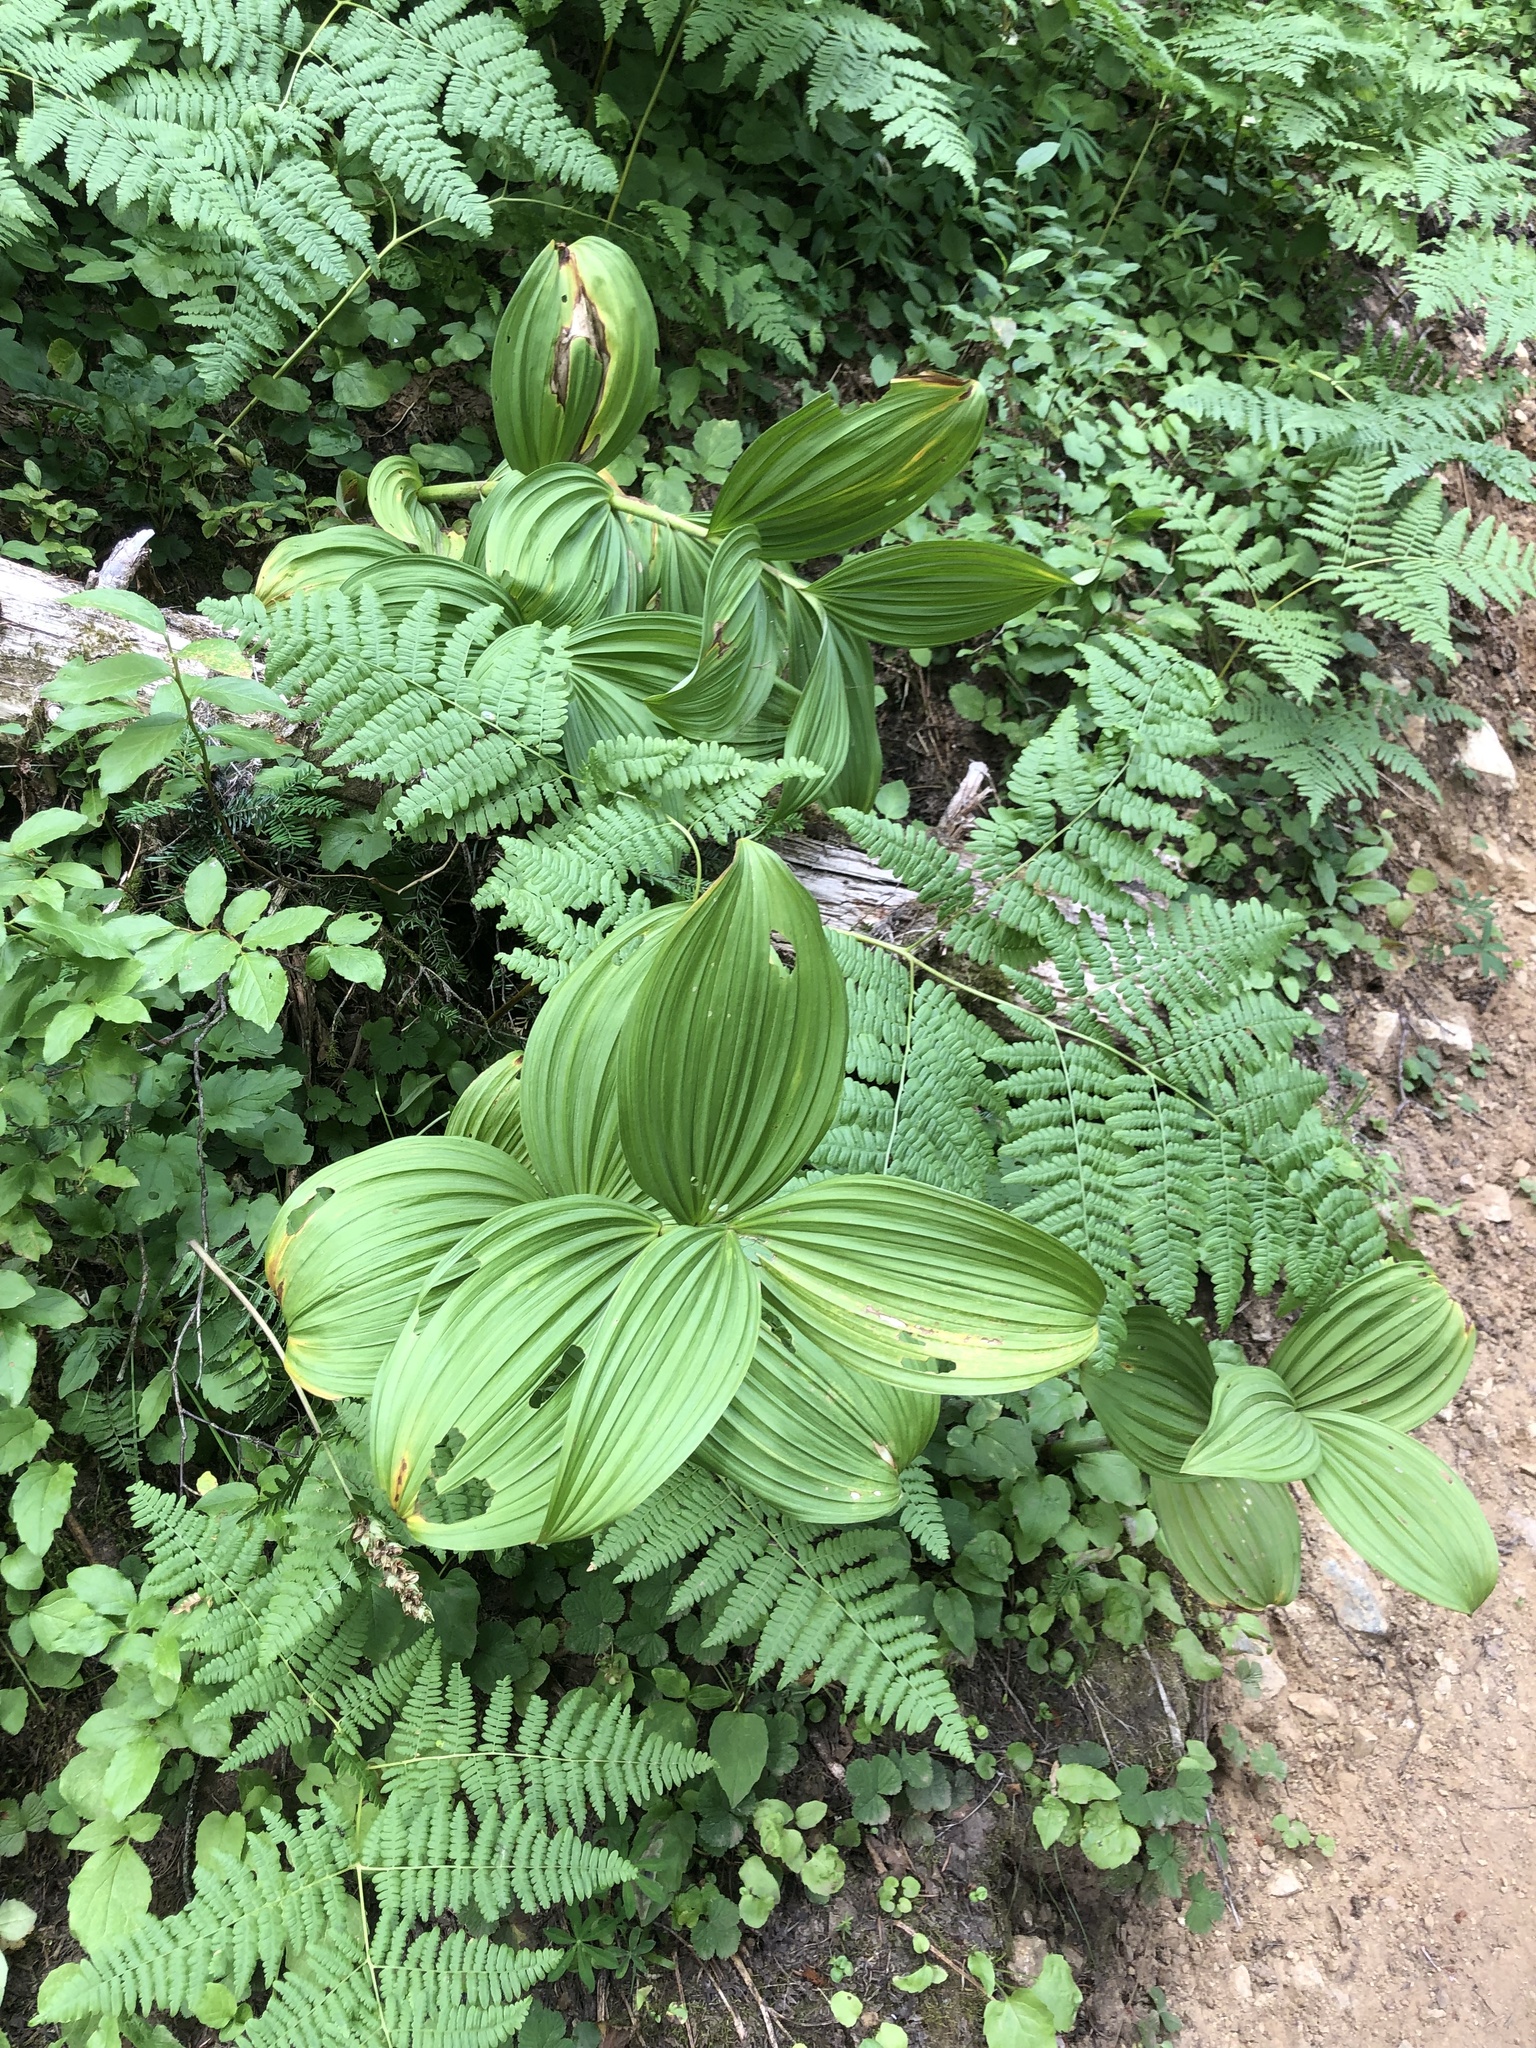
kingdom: Plantae
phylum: Tracheophyta
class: Liliopsida
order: Liliales
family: Melanthiaceae
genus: Veratrum
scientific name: Veratrum viride
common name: American false hellebore
